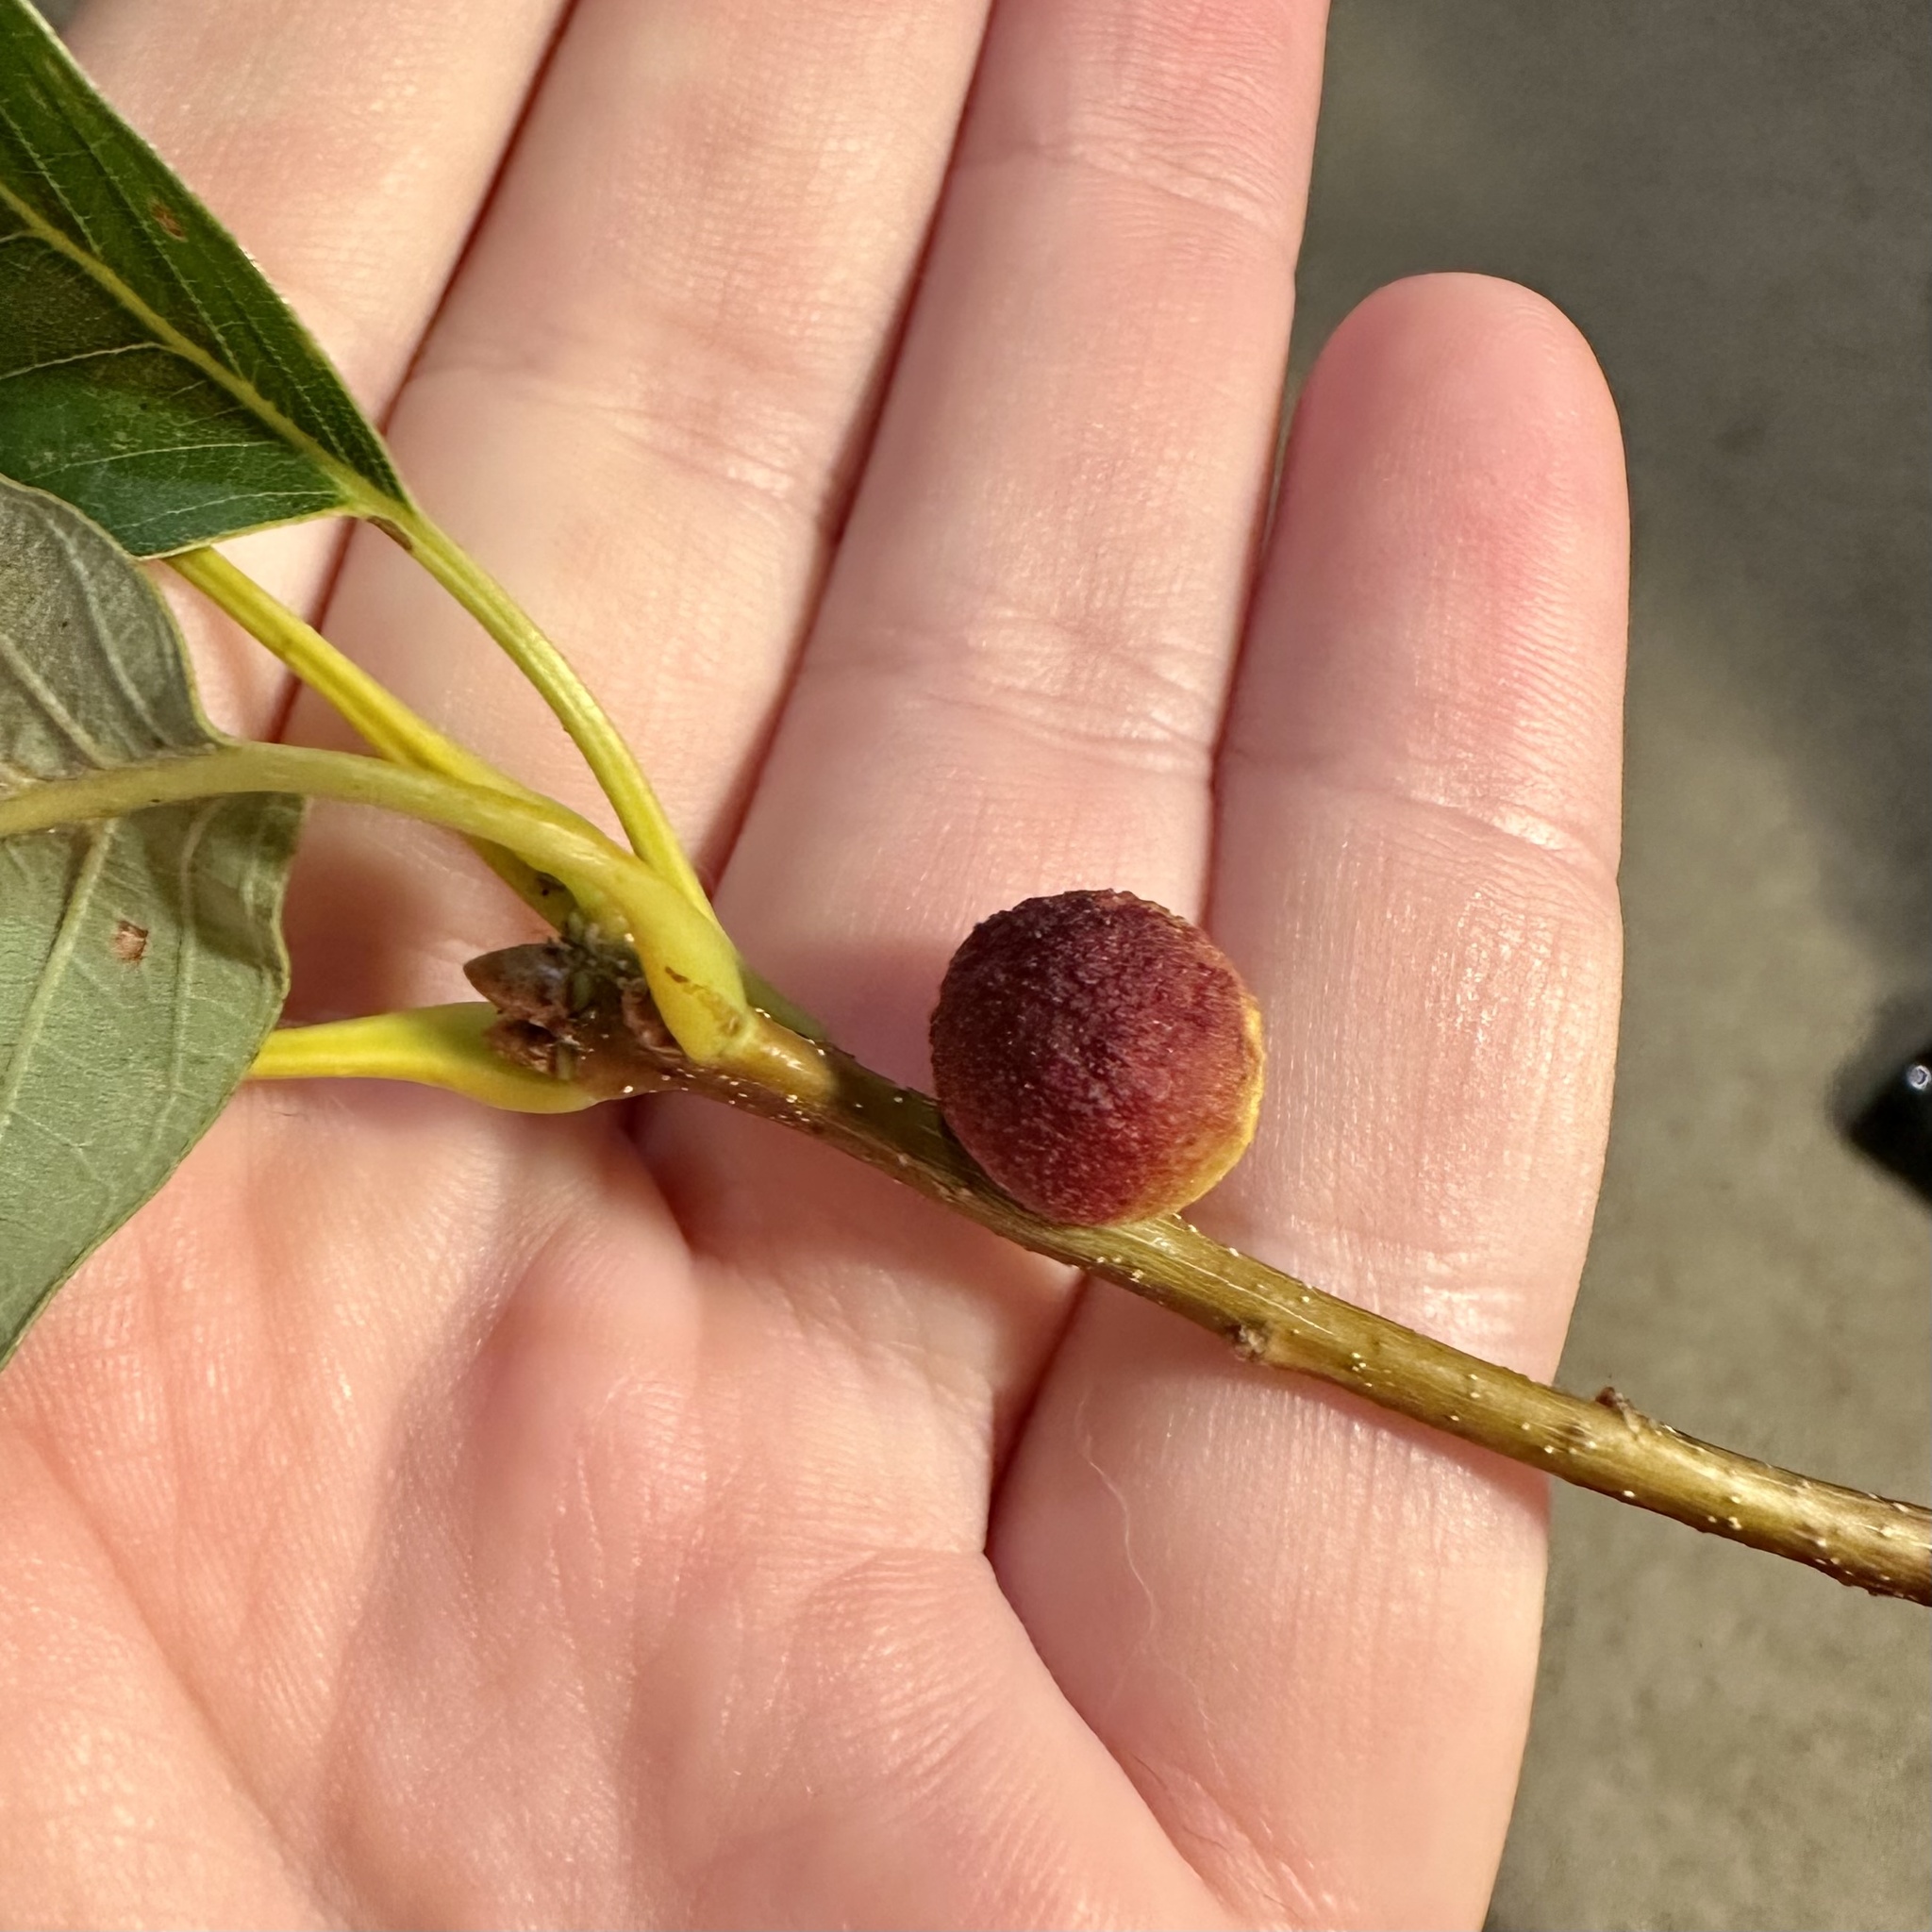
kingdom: Animalia
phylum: Arthropoda
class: Insecta
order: Hymenoptera
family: Cynipidae
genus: Disholcaspis
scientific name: Disholcaspis quercusglobulus
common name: Round bullet gall wasp
